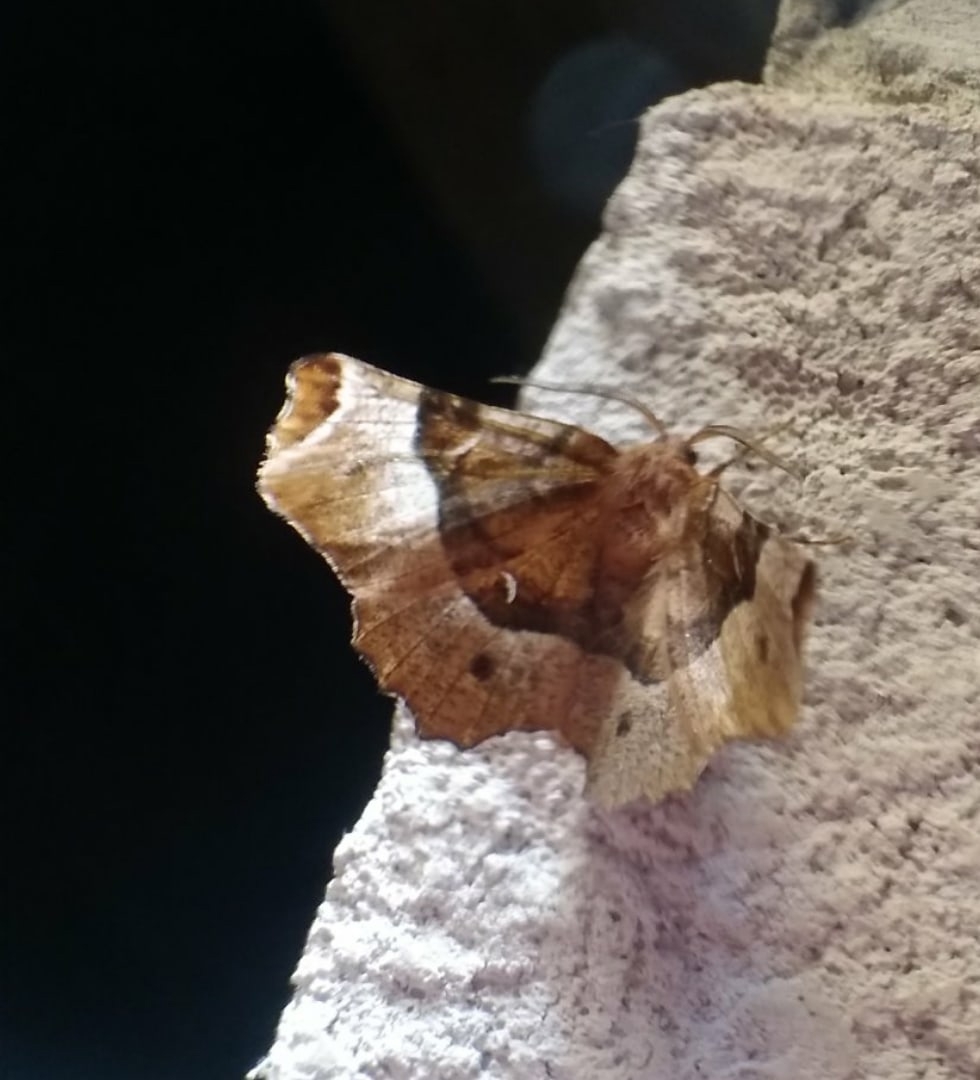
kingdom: Animalia
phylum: Arthropoda
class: Insecta
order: Lepidoptera
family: Geometridae
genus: Selenia
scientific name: Selenia tetralunaria
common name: Purple thorn
